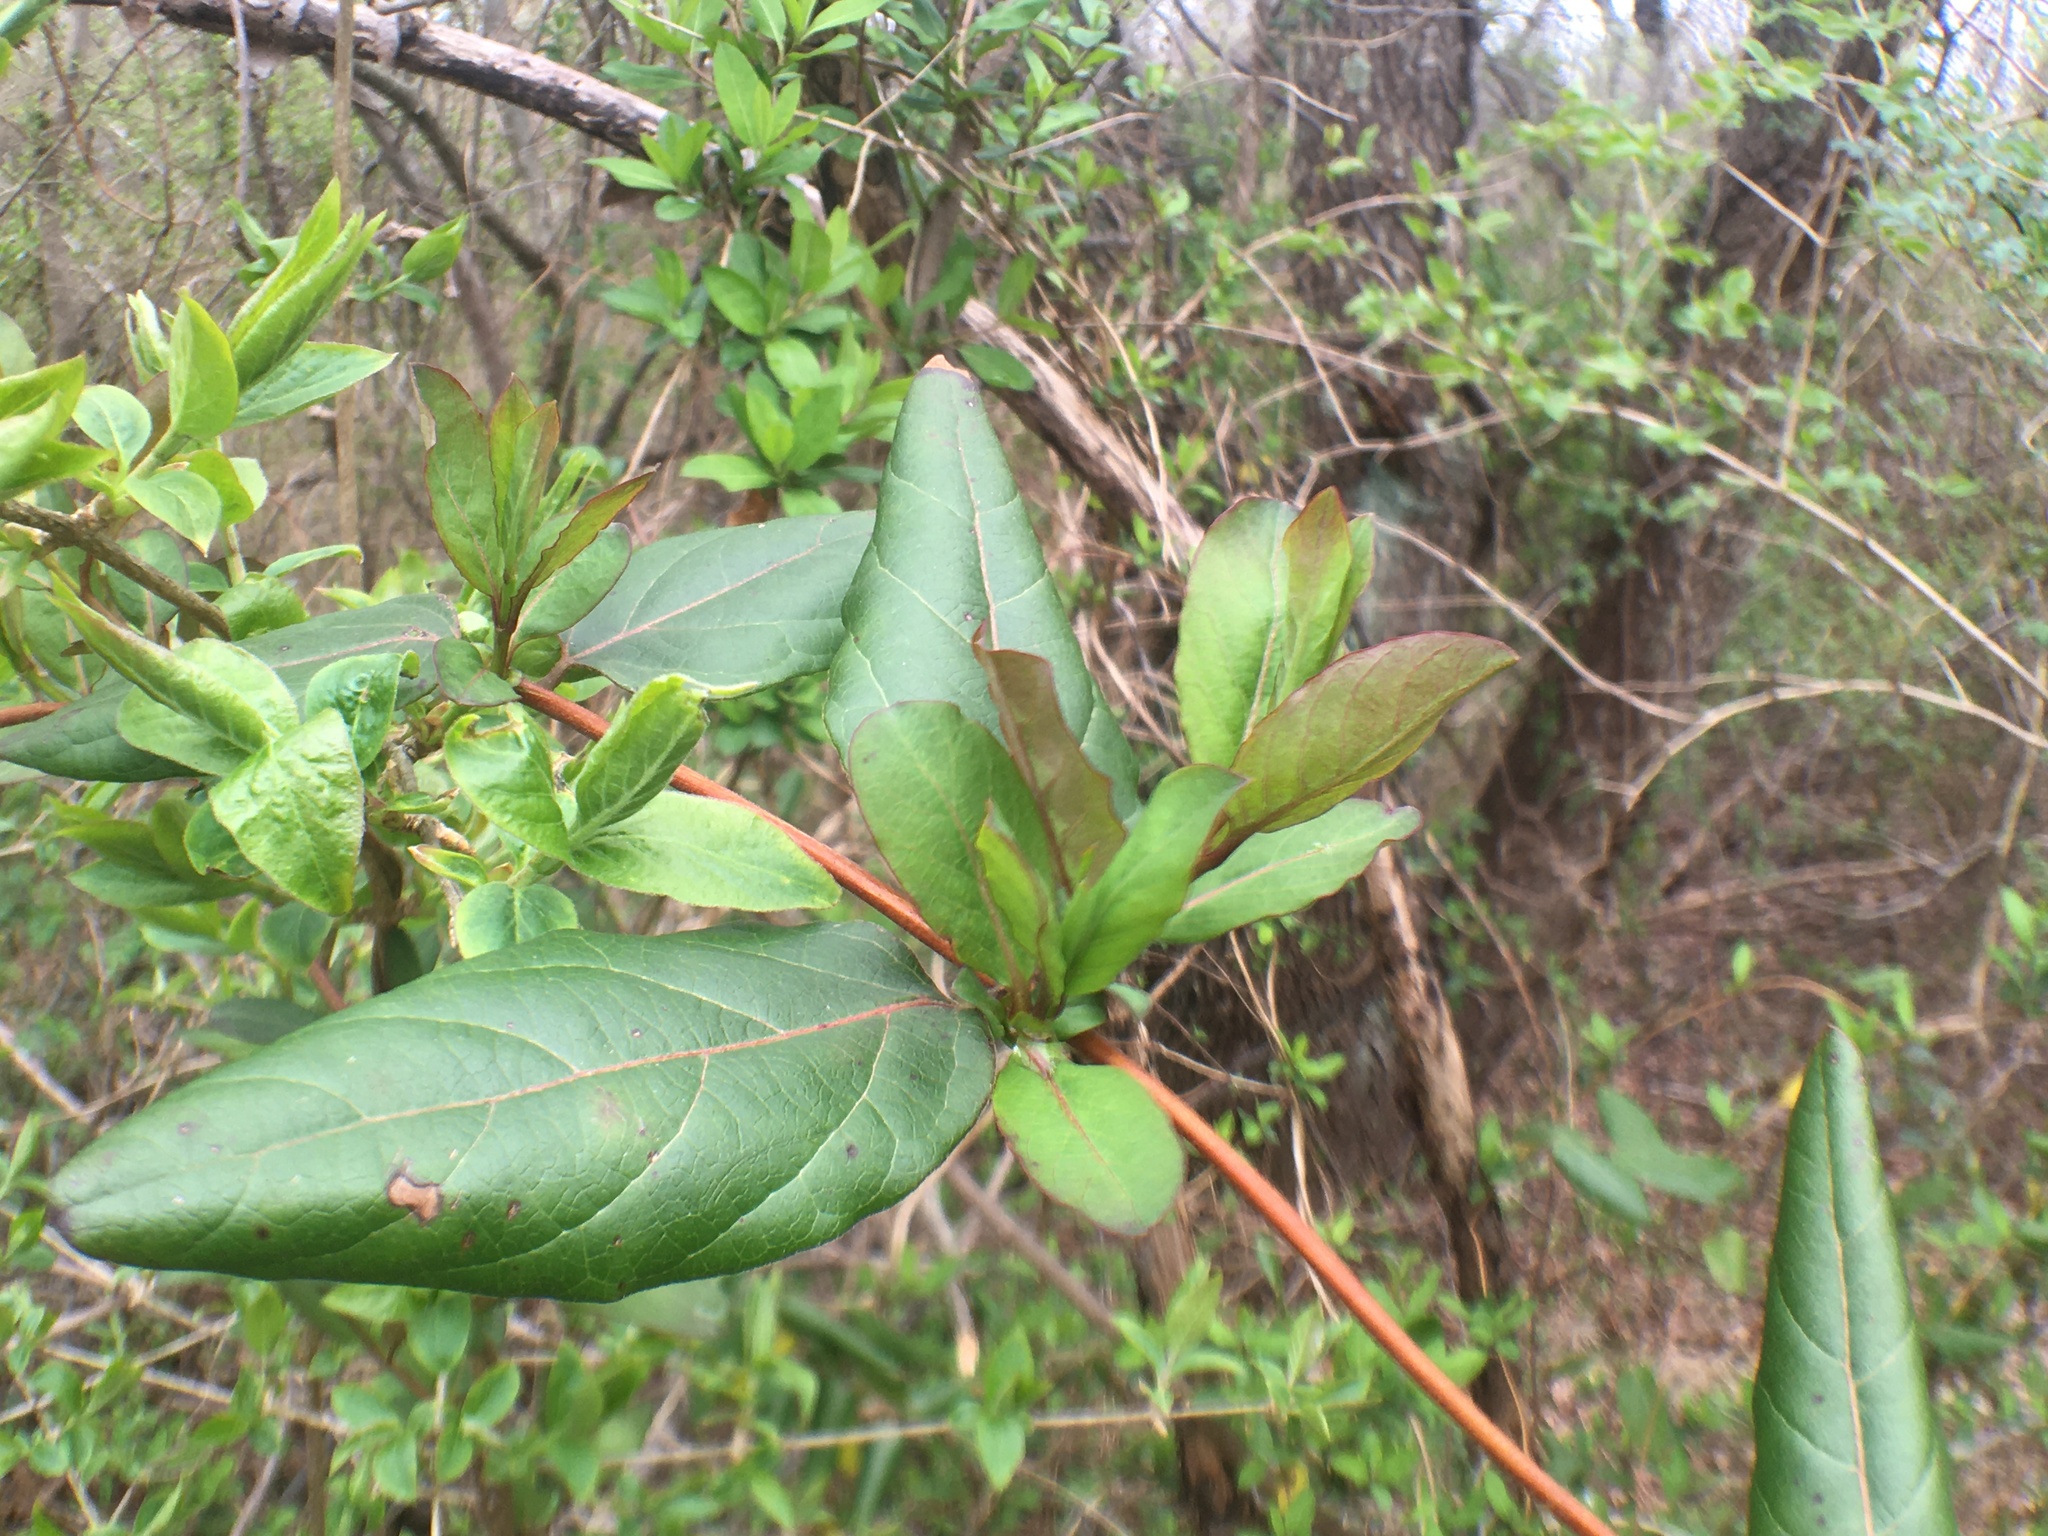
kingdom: Plantae
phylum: Tracheophyta
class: Magnoliopsida
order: Dipsacales
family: Caprifoliaceae
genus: Lonicera
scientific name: Lonicera japonica
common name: Japanese honeysuckle
